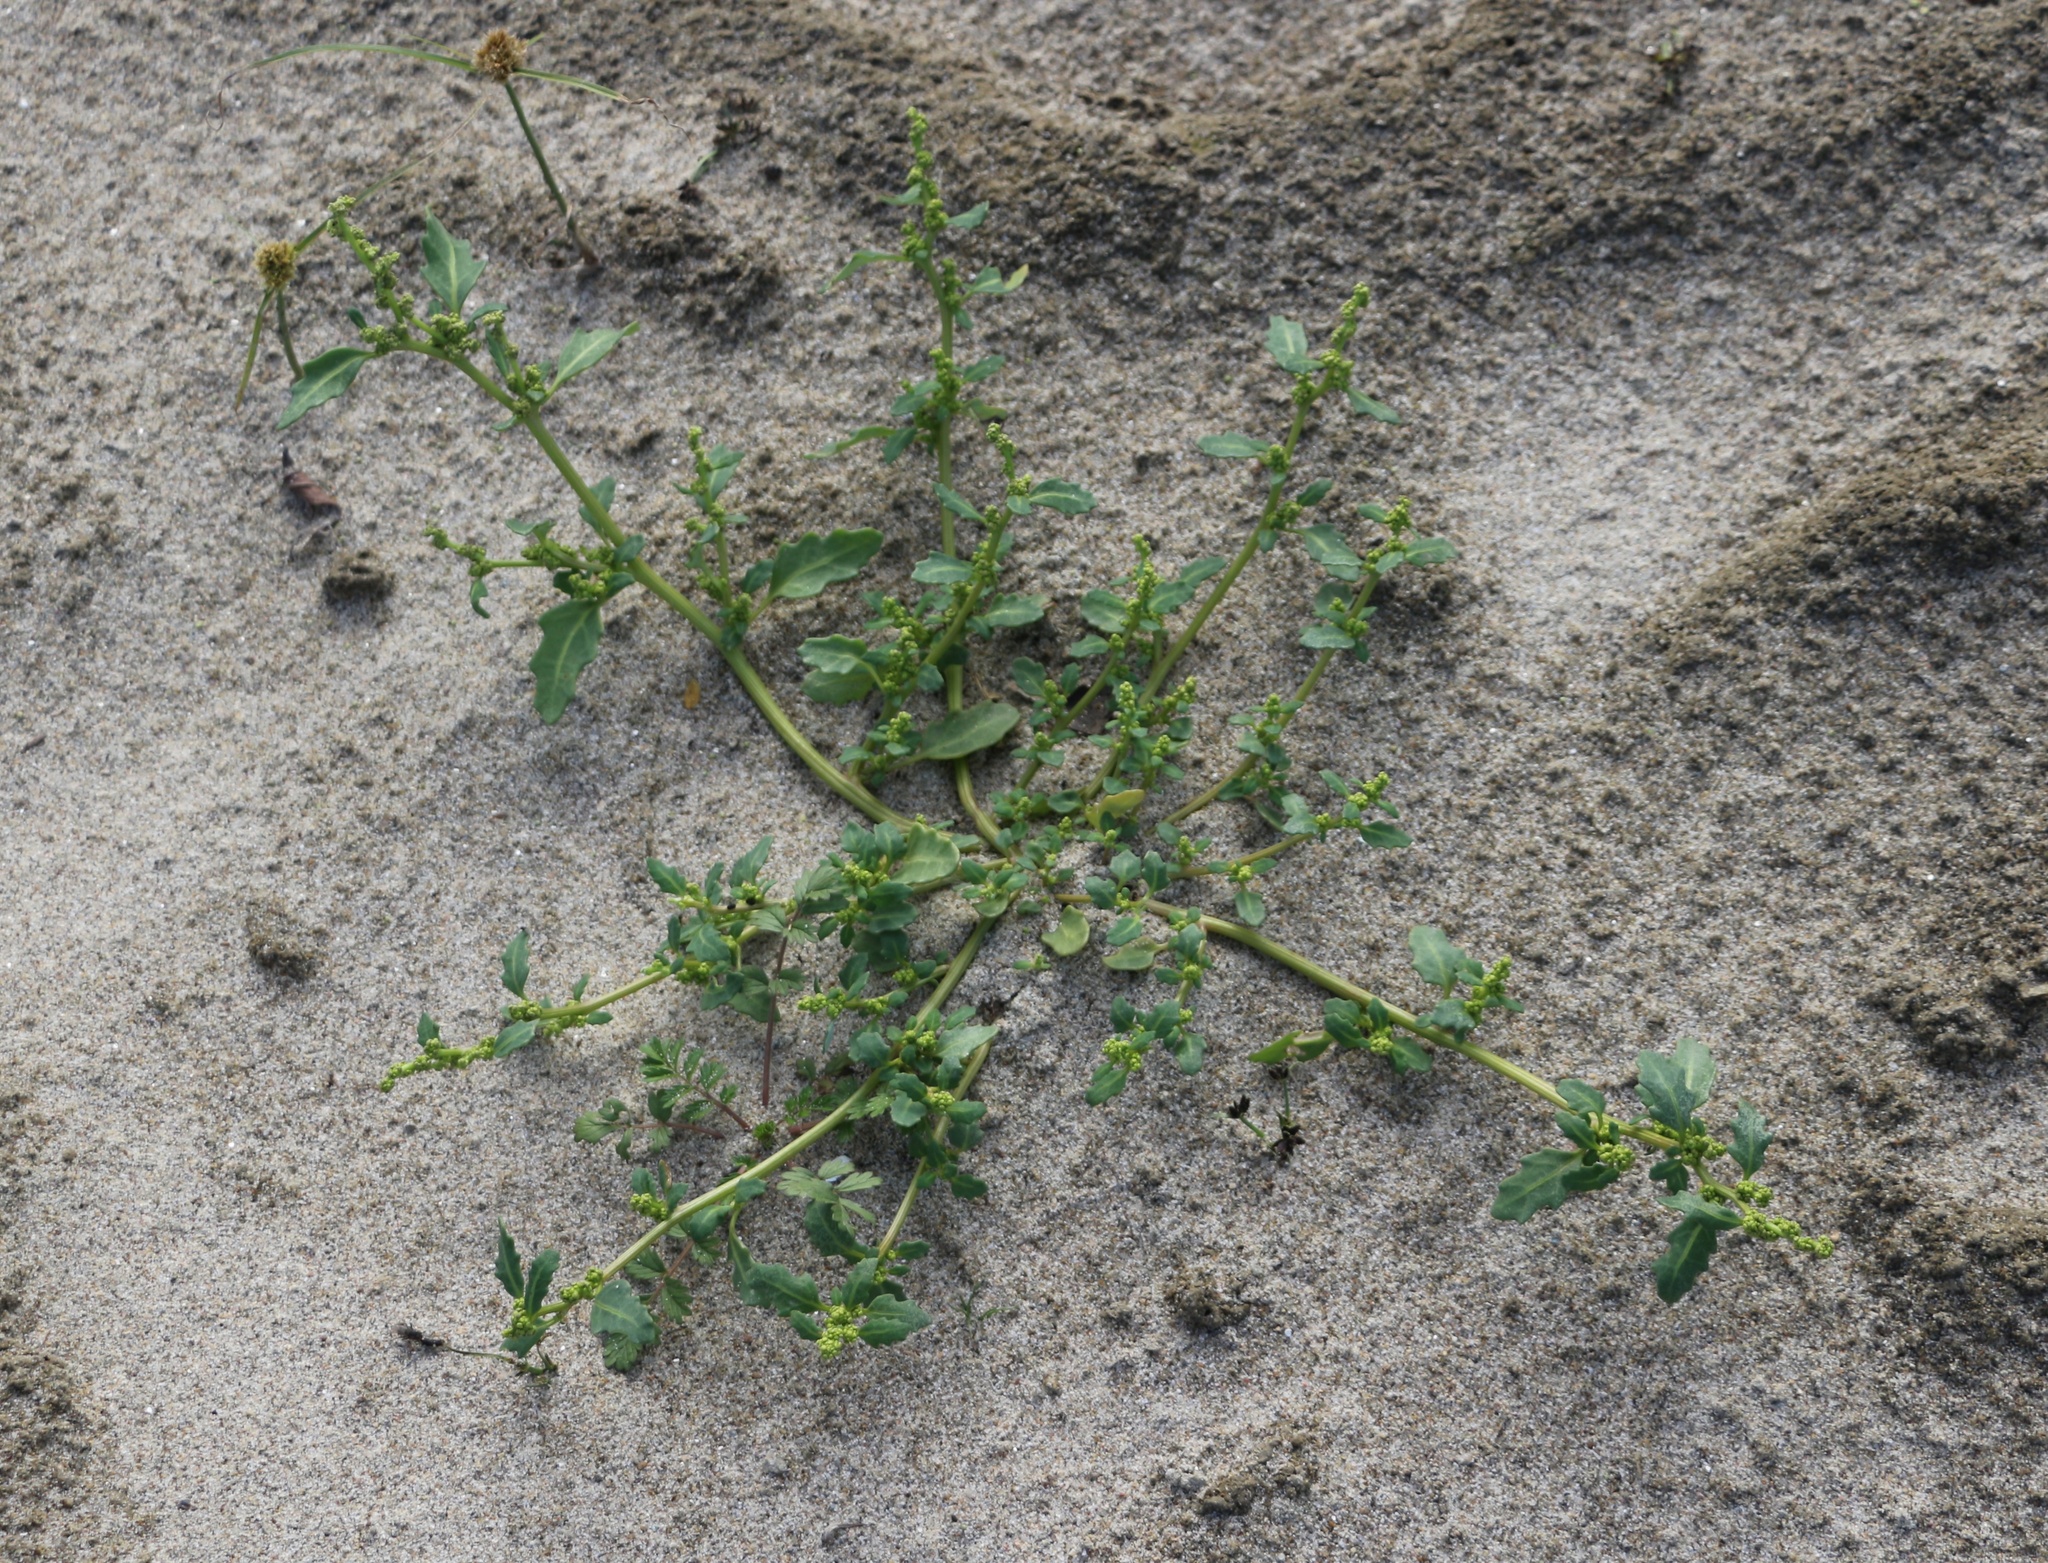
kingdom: Plantae
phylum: Tracheophyta
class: Magnoliopsida
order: Caryophyllales
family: Amaranthaceae
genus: Oxybasis
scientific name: Oxybasis glauca
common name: Glaucous goosefoot
